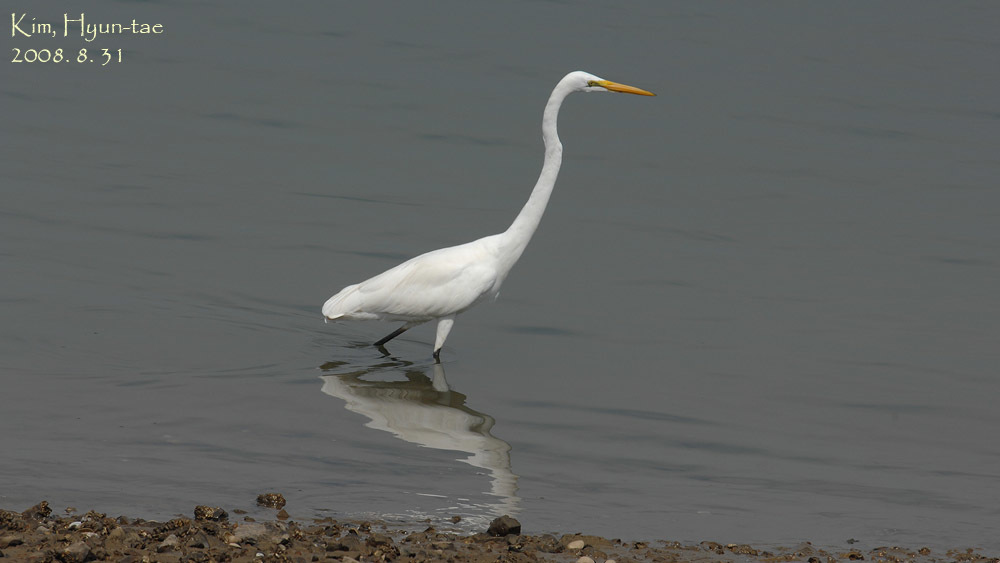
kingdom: Animalia
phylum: Chordata
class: Aves
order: Pelecaniformes
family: Ardeidae
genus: Ardea
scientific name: Ardea alba
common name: Great egret
